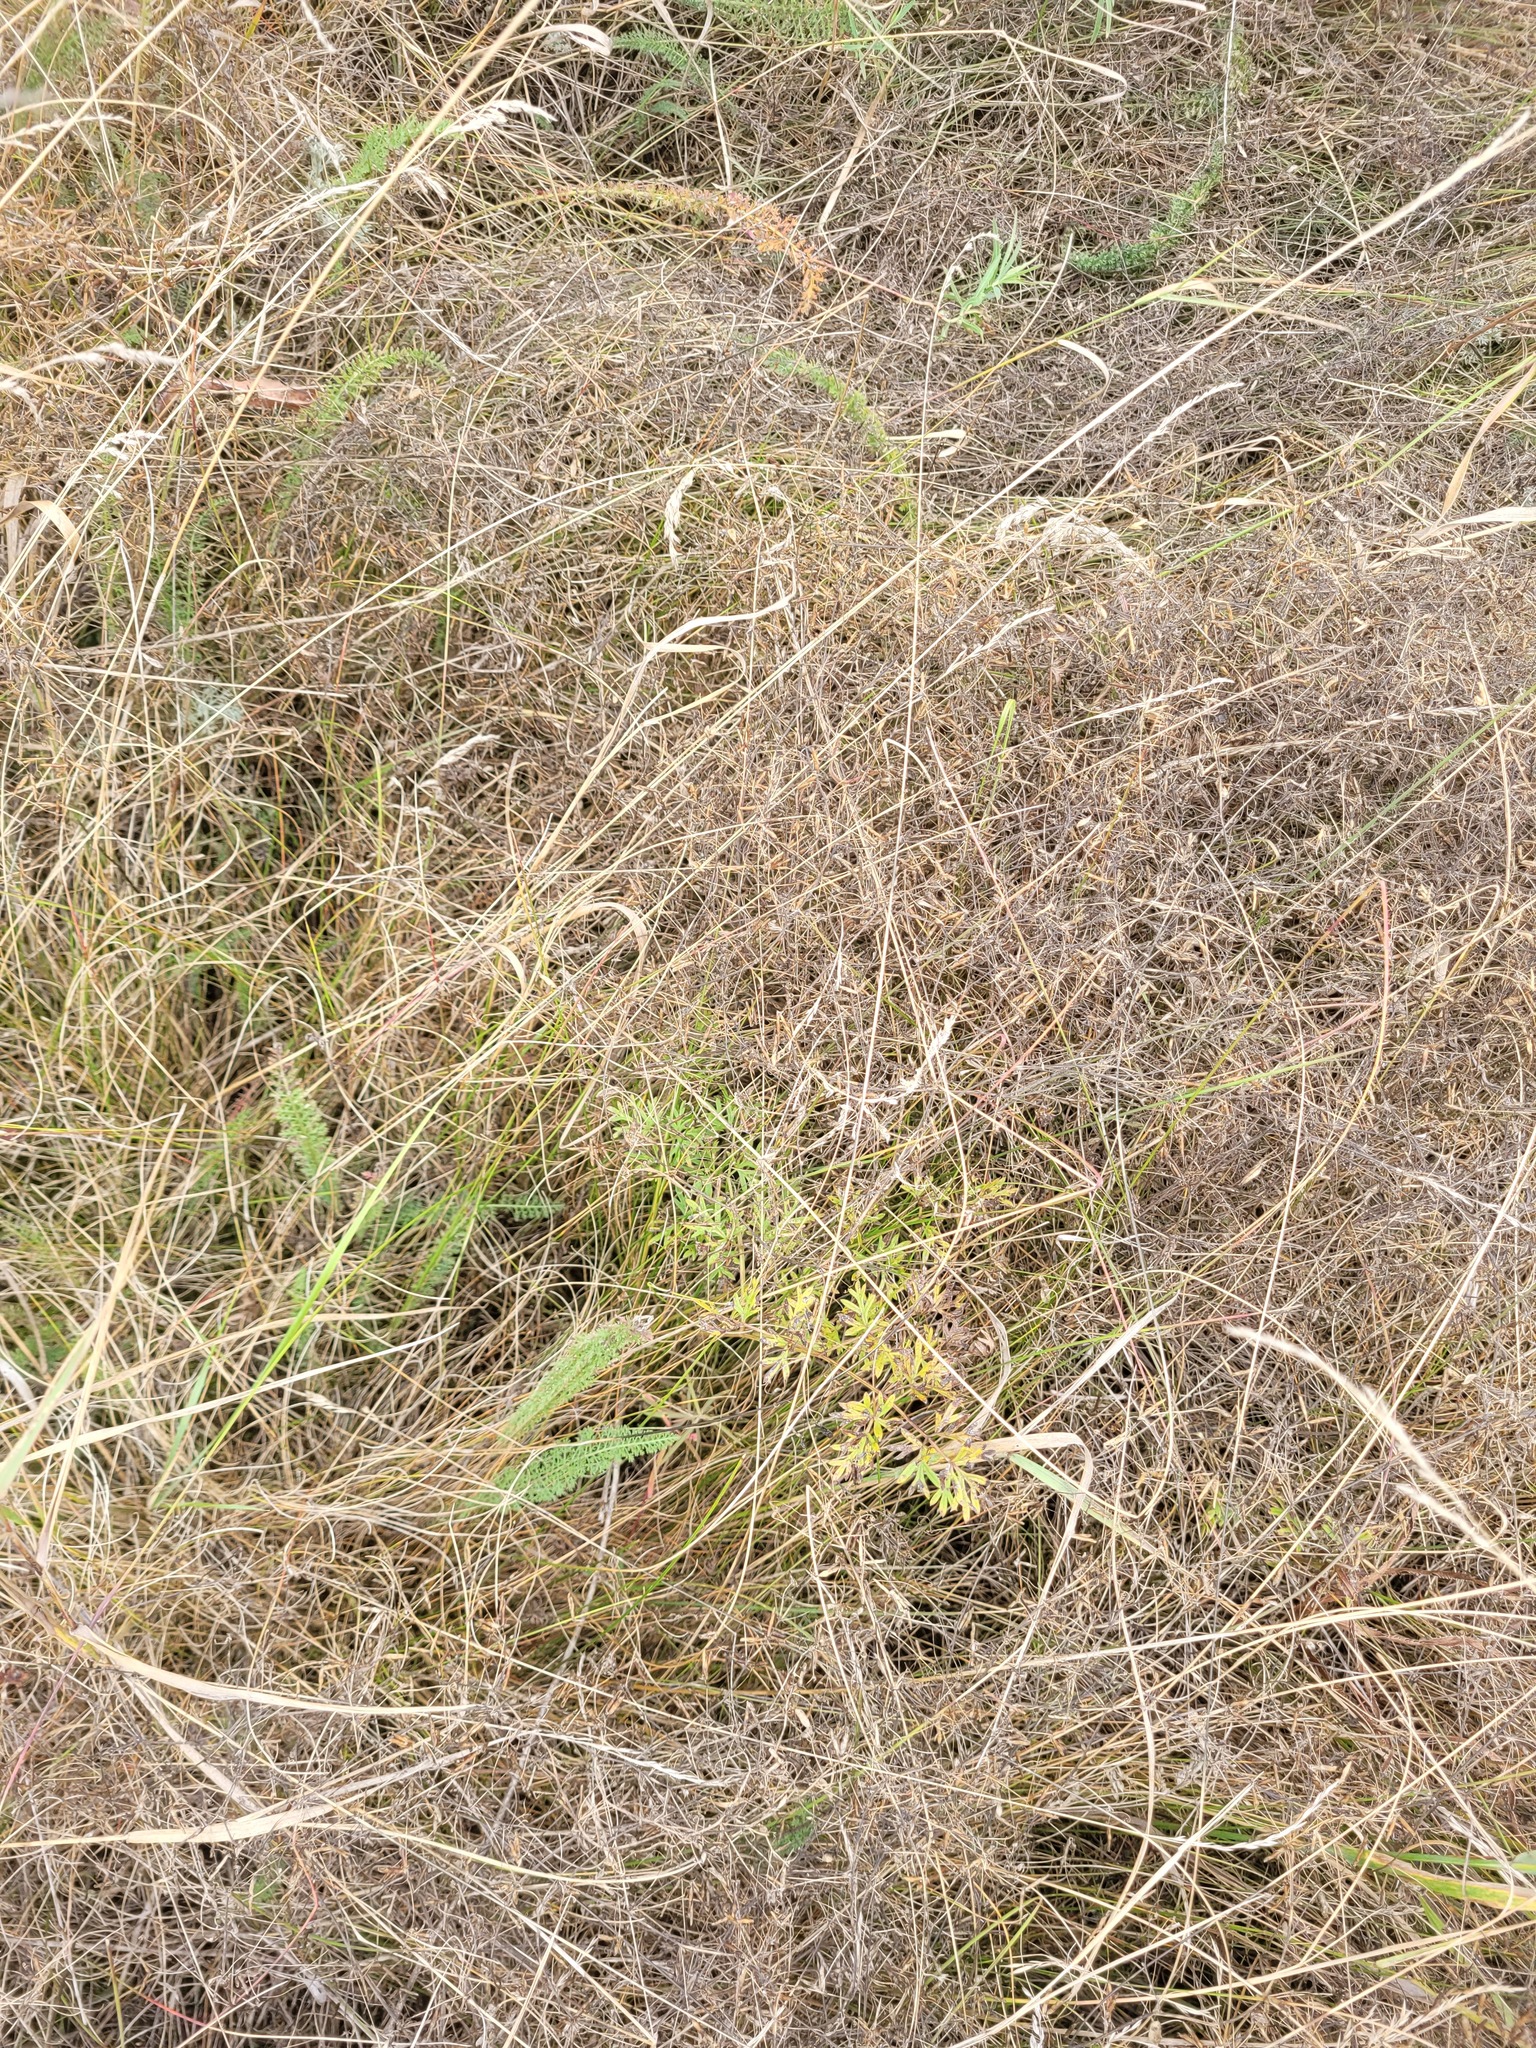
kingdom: Plantae
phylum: Tracheophyta
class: Magnoliopsida
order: Apiales
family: Apiaceae
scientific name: Apiaceae
